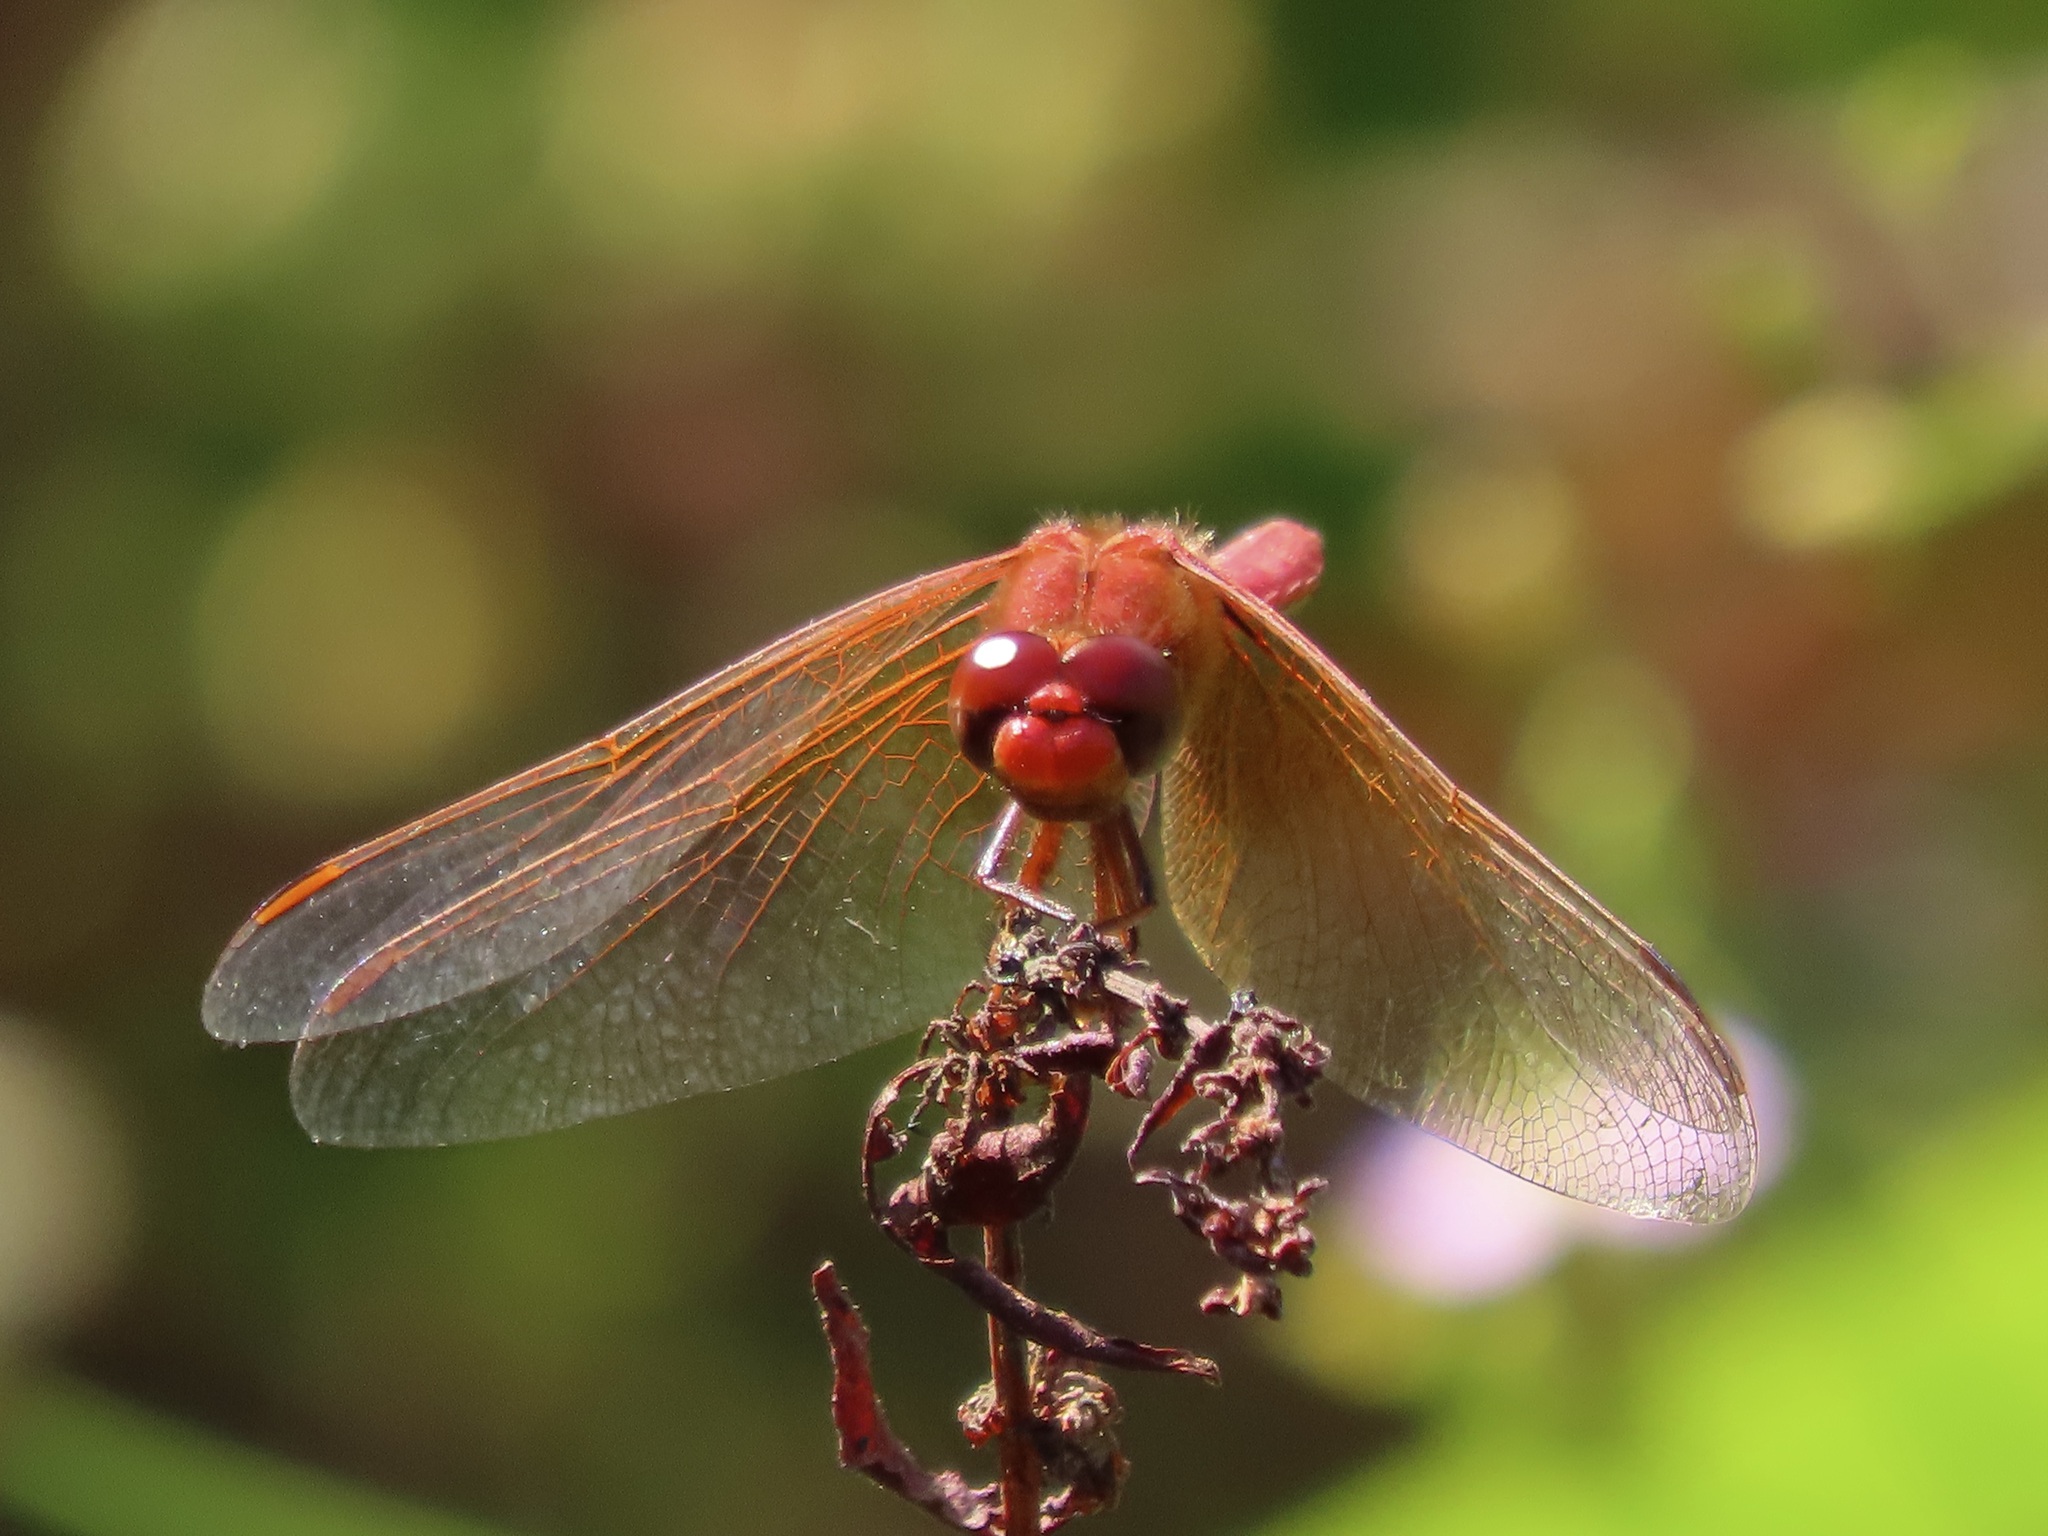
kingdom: Animalia
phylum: Arthropoda
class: Insecta
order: Odonata
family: Libellulidae
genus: Sympetrum
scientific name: Sympetrum illotum
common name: Cardinal meadowhawk
